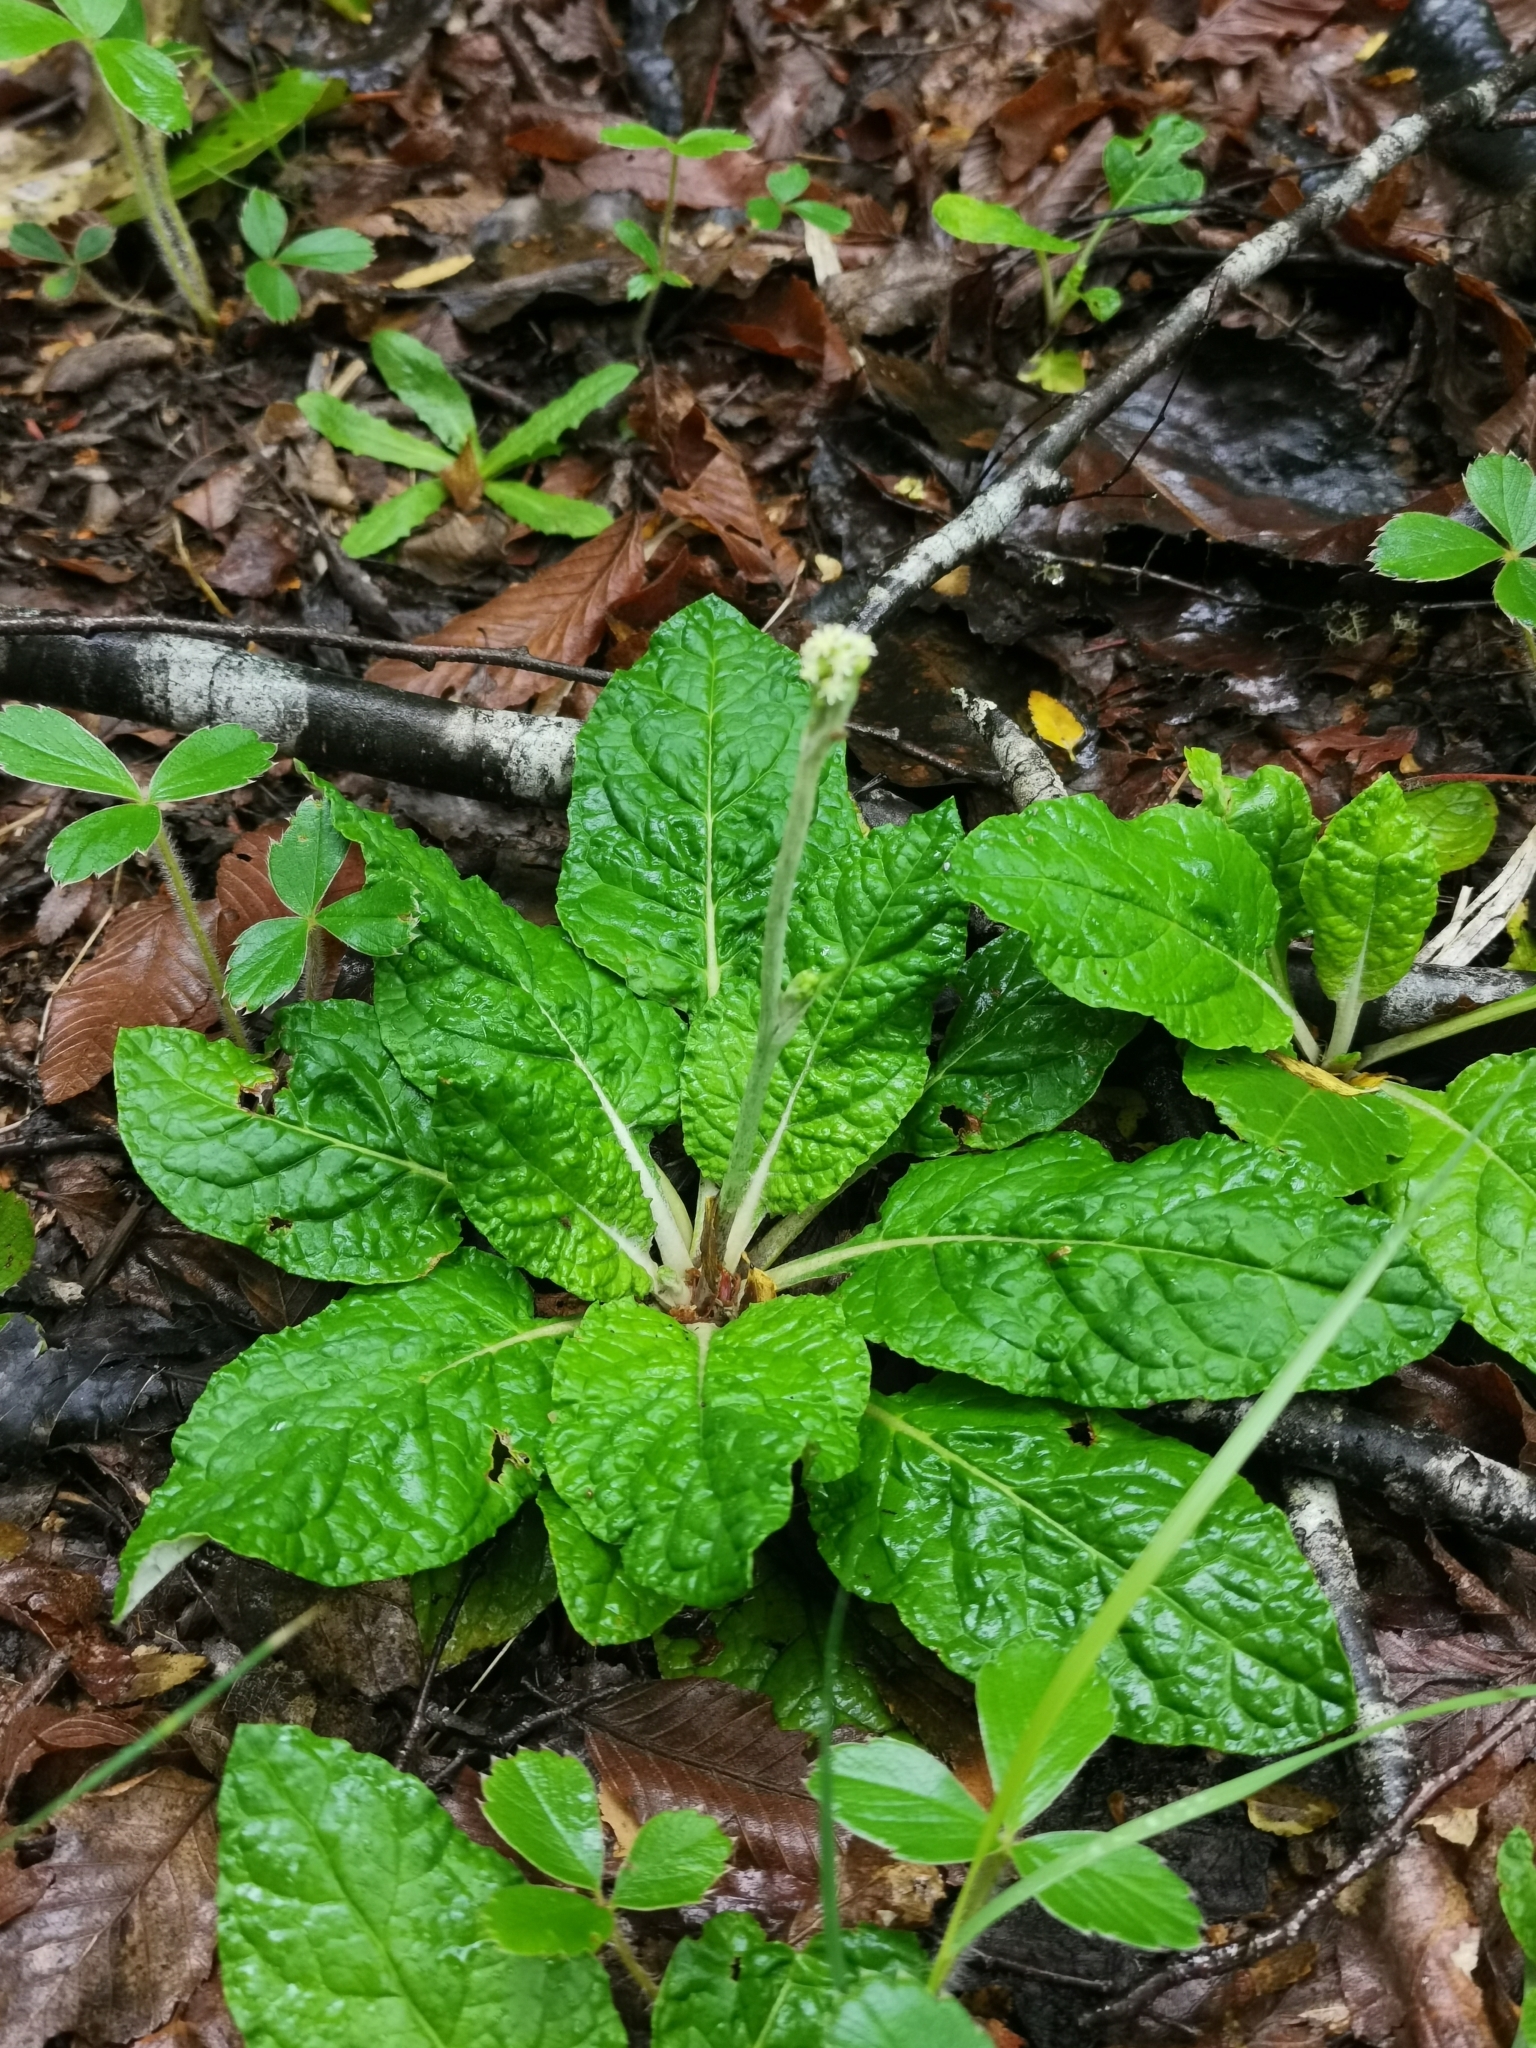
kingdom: Plantae
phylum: Tracheophyta
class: Magnoliopsida
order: Asterales
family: Asteraceae
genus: Adenocaulon
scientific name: Adenocaulon chilense
